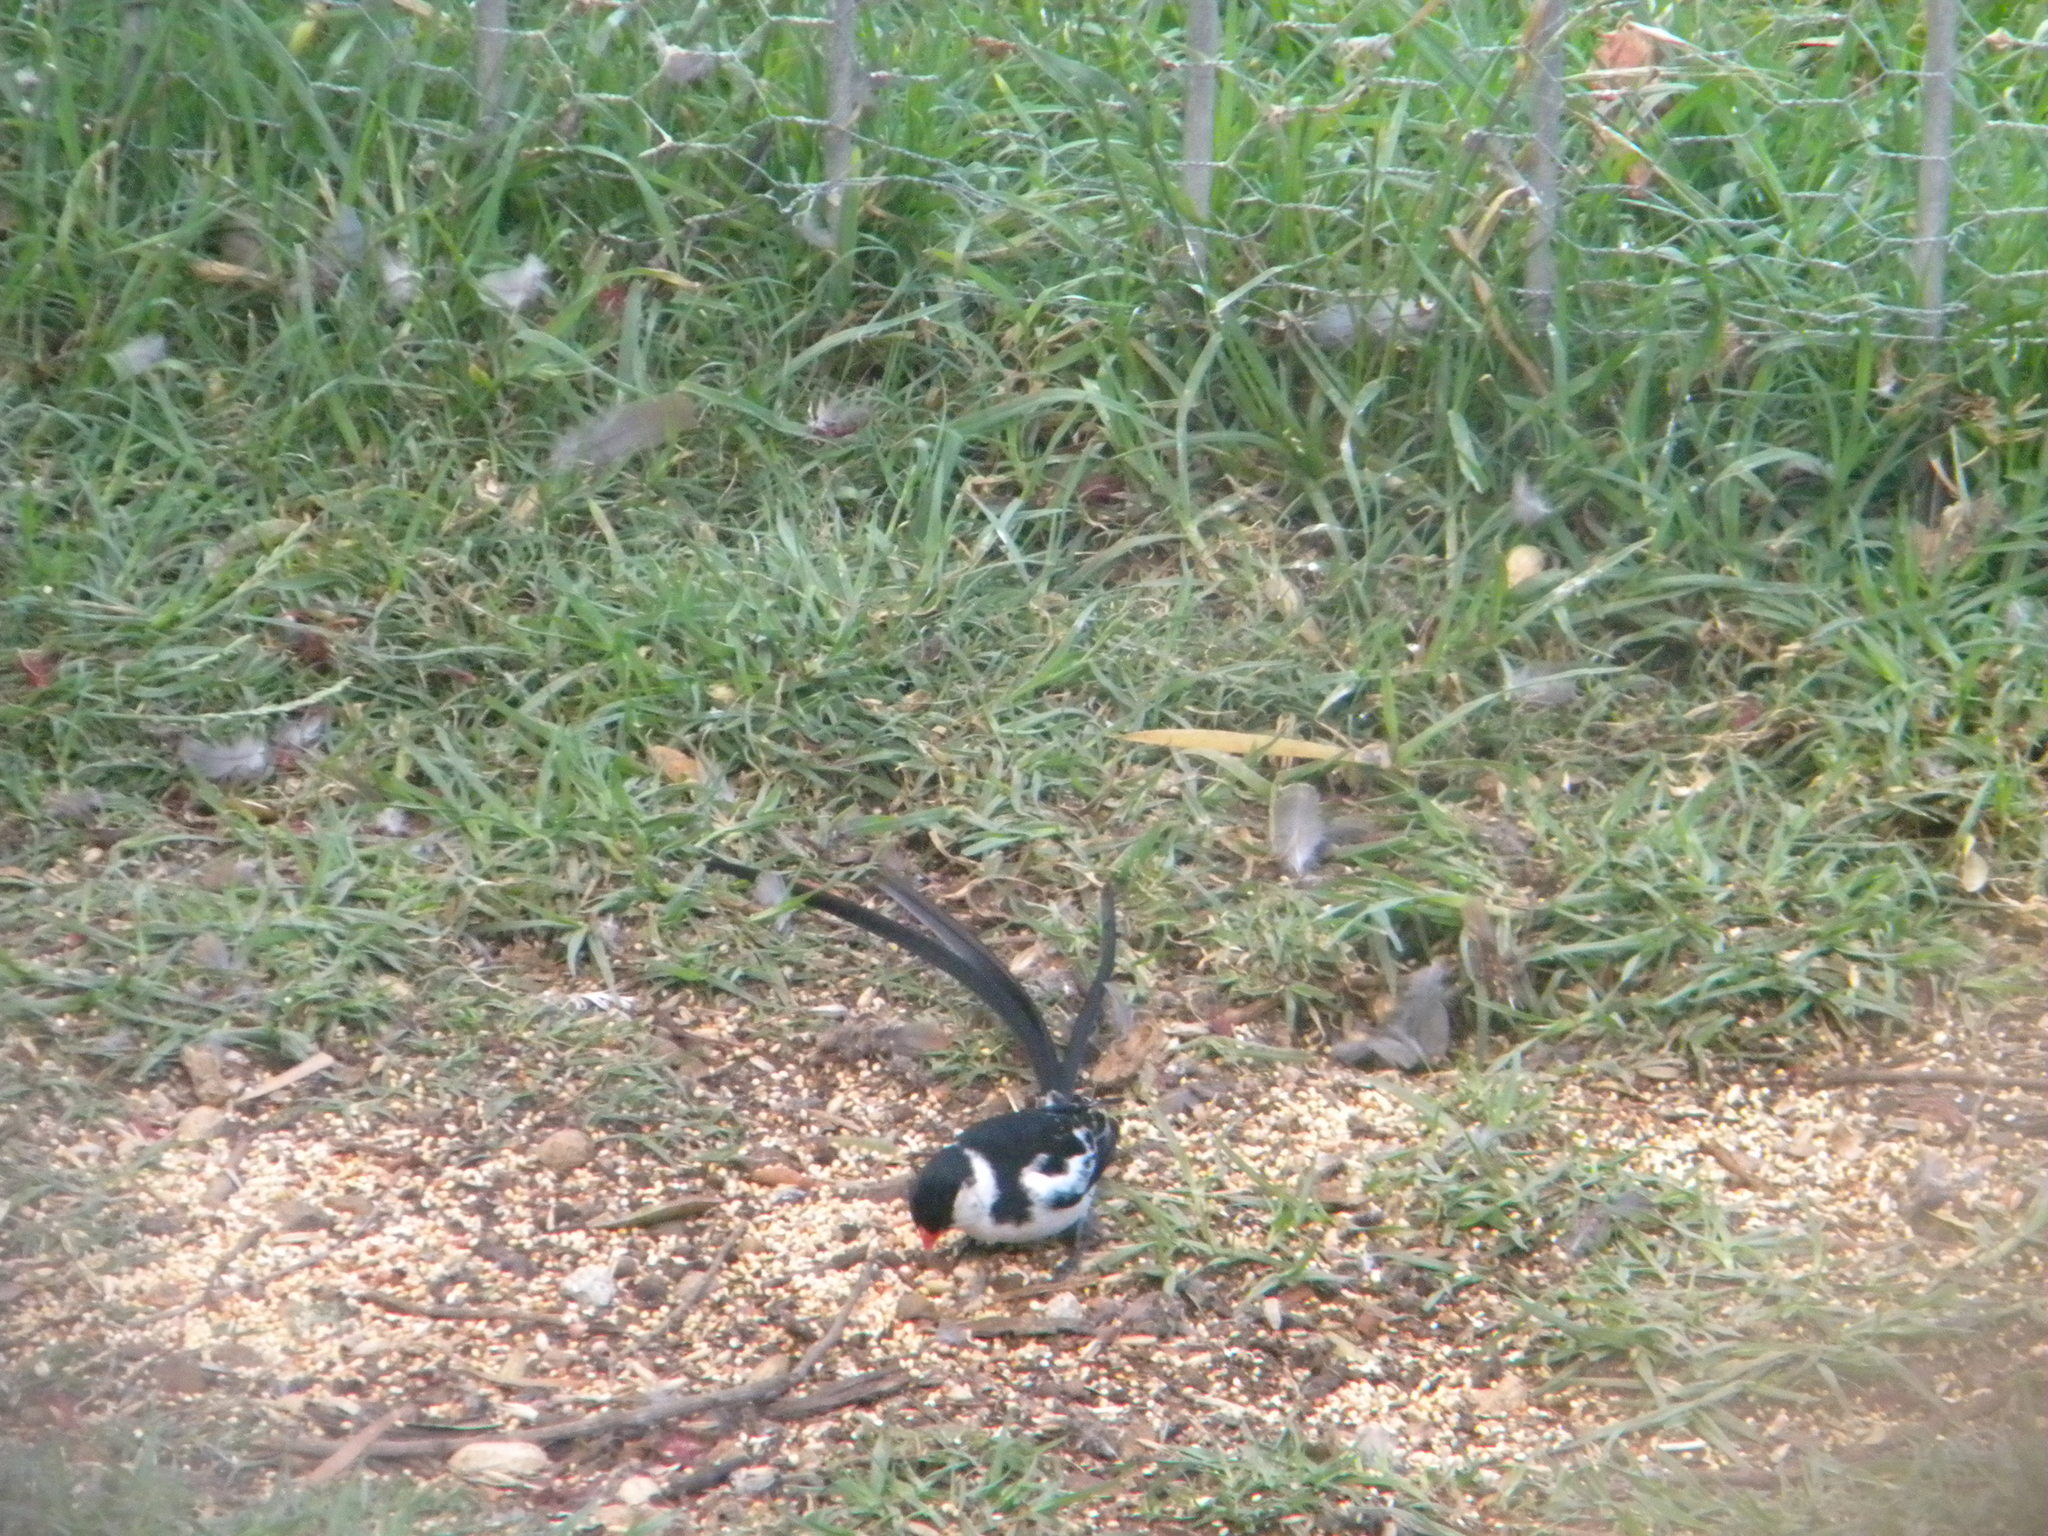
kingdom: Animalia
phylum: Chordata
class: Aves
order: Passeriformes
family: Viduidae
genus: Vidua
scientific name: Vidua macroura
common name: Pin-tailed whydah
